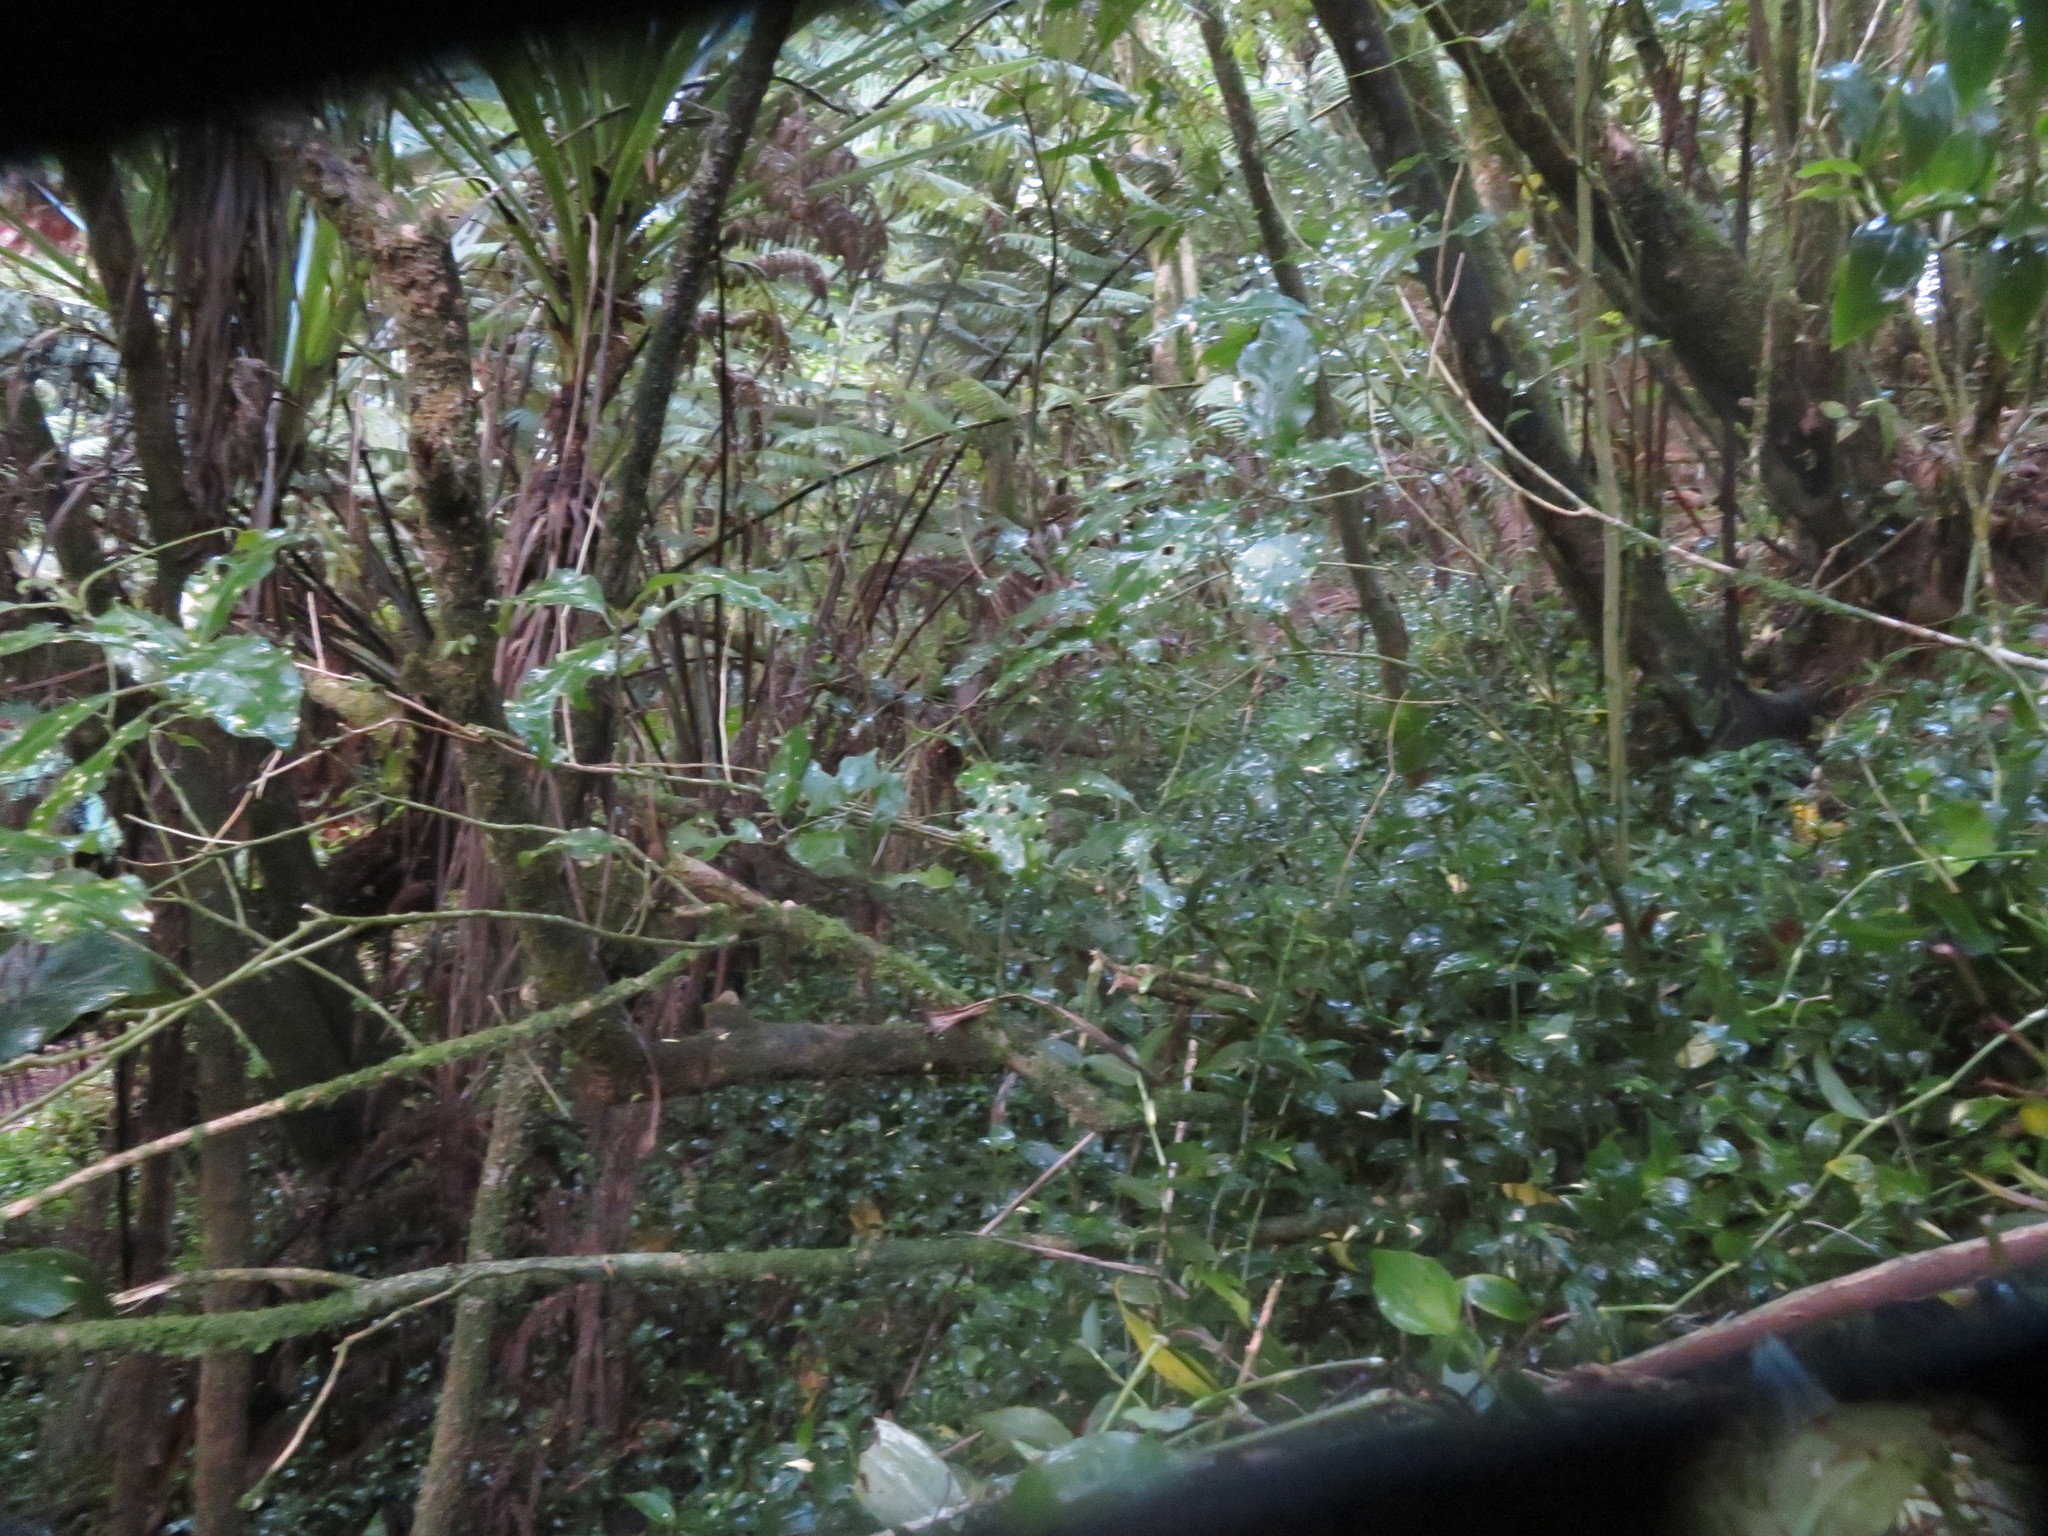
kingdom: Plantae
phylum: Tracheophyta
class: Liliopsida
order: Commelinales
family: Commelinaceae
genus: Tradescantia
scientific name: Tradescantia fluminensis
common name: Wandering-jew
